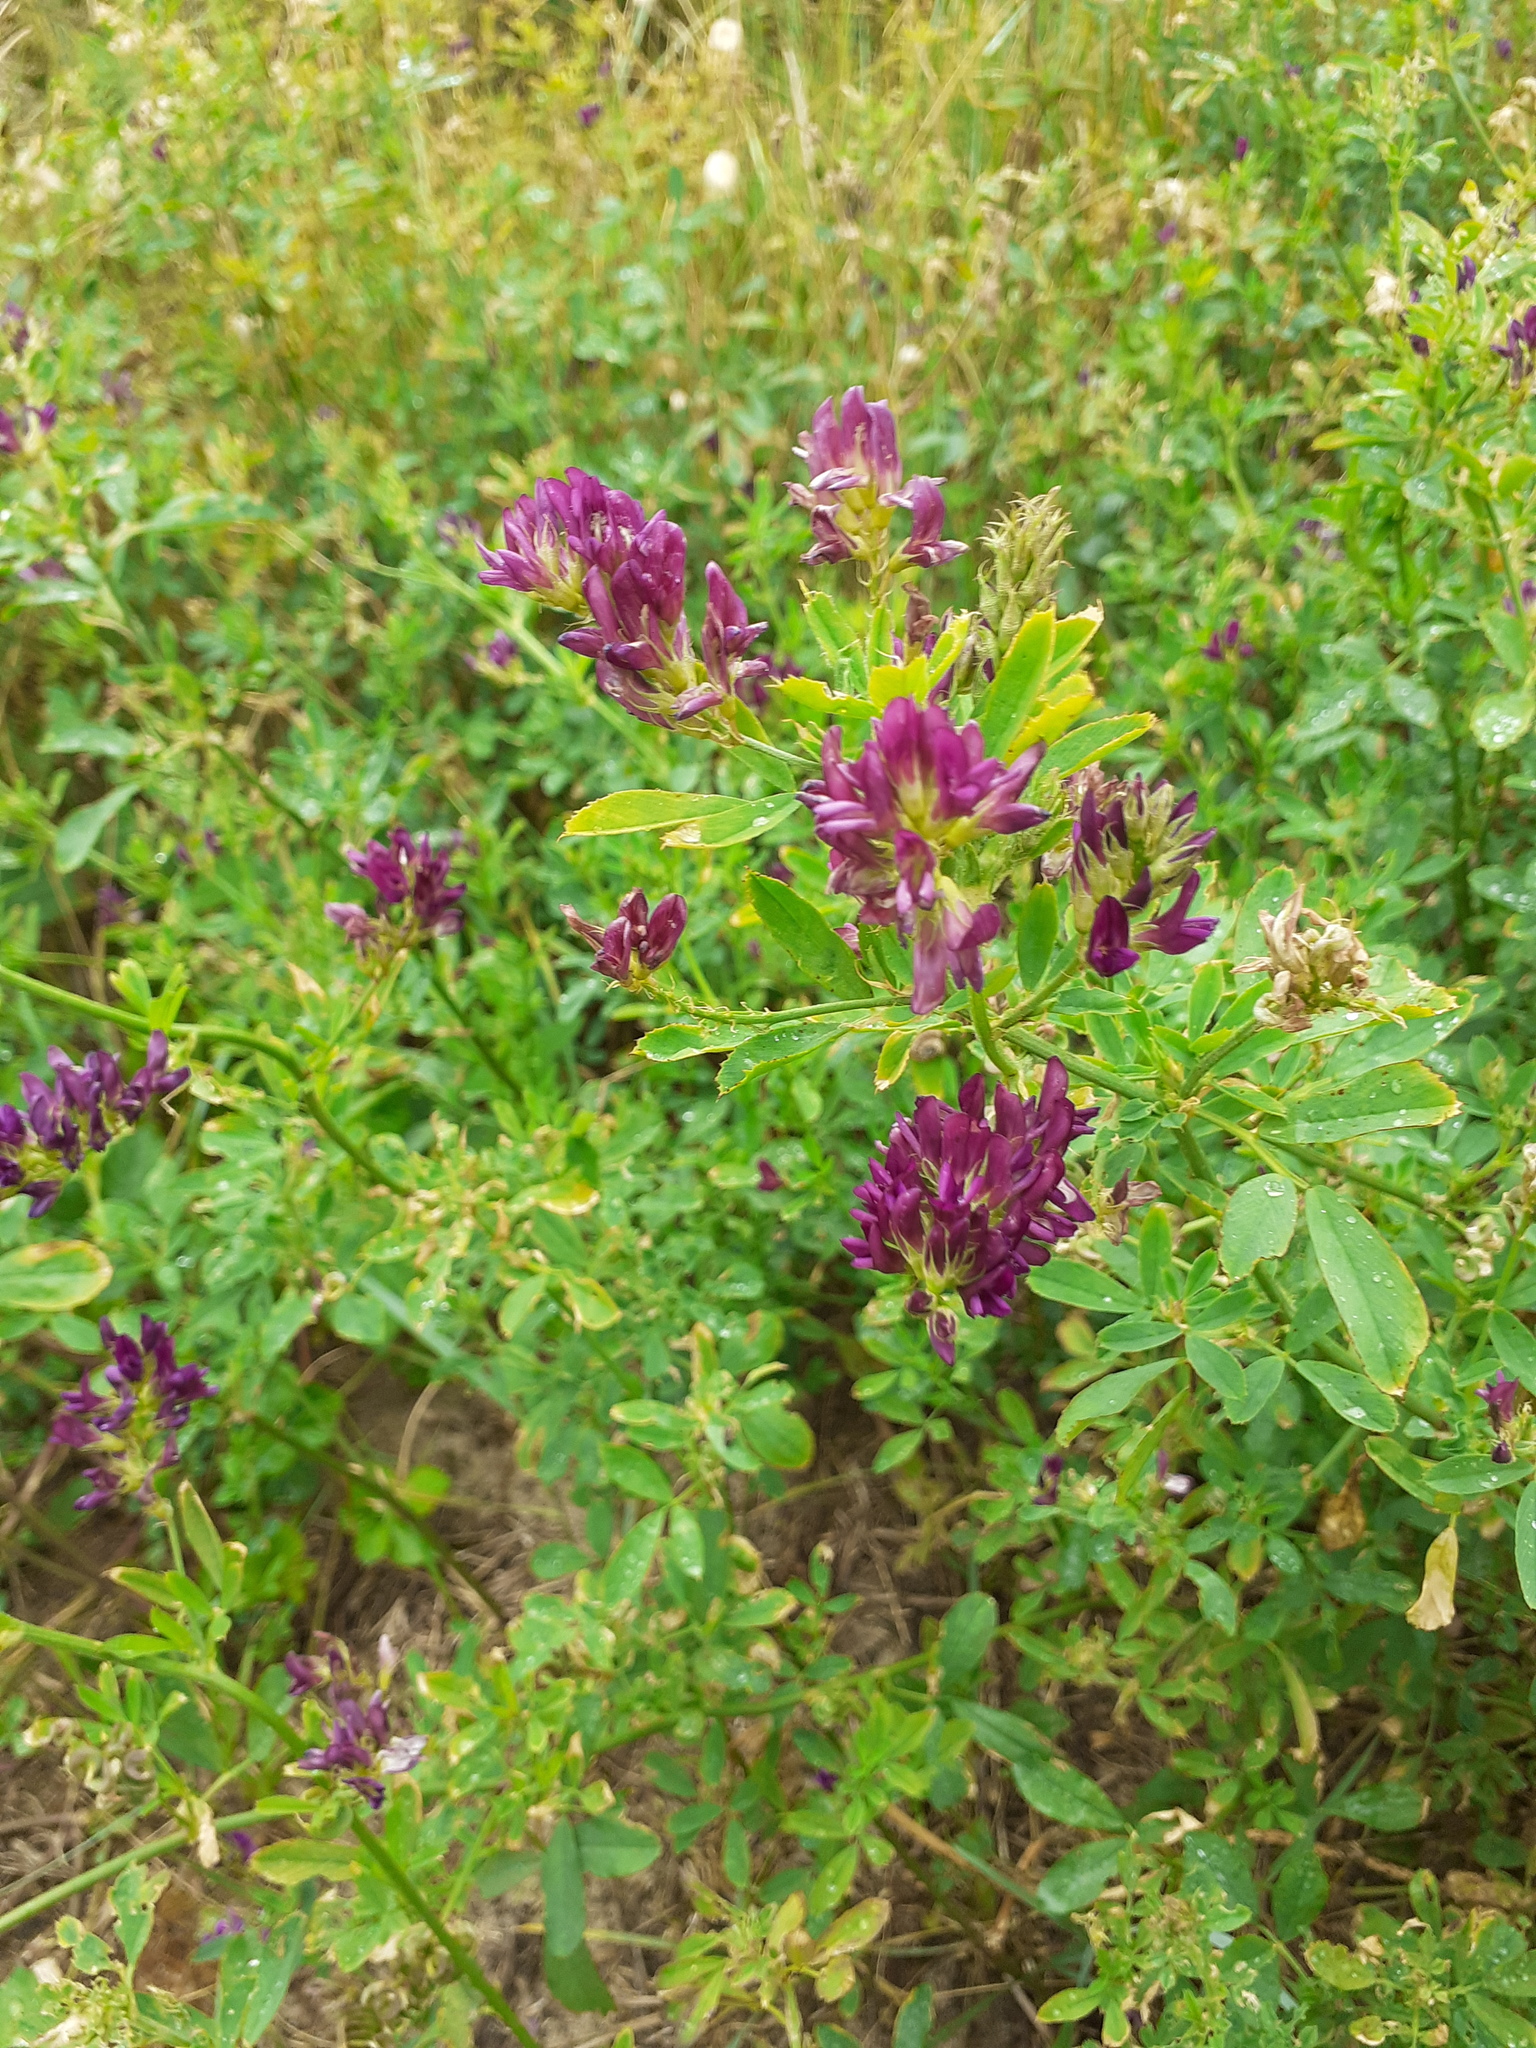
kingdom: Plantae
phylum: Tracheophyta
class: Magnoliopsida
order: Fabales
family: Fabaceae
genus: Medicago
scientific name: Medicago sativa
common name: Alfalfa
